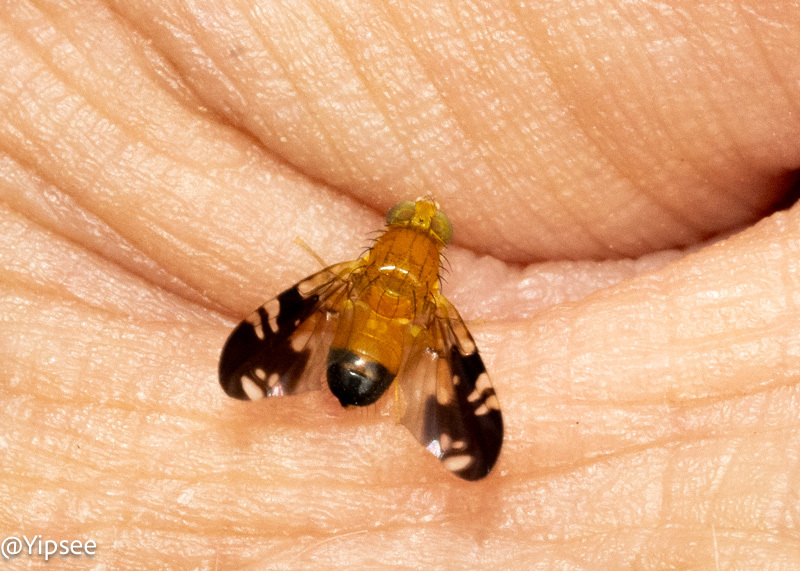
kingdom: Animalia
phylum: Arthropoda
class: Insecta
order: Diptera
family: Tephritidae
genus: Acidiella
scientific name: Acidiella caudata
